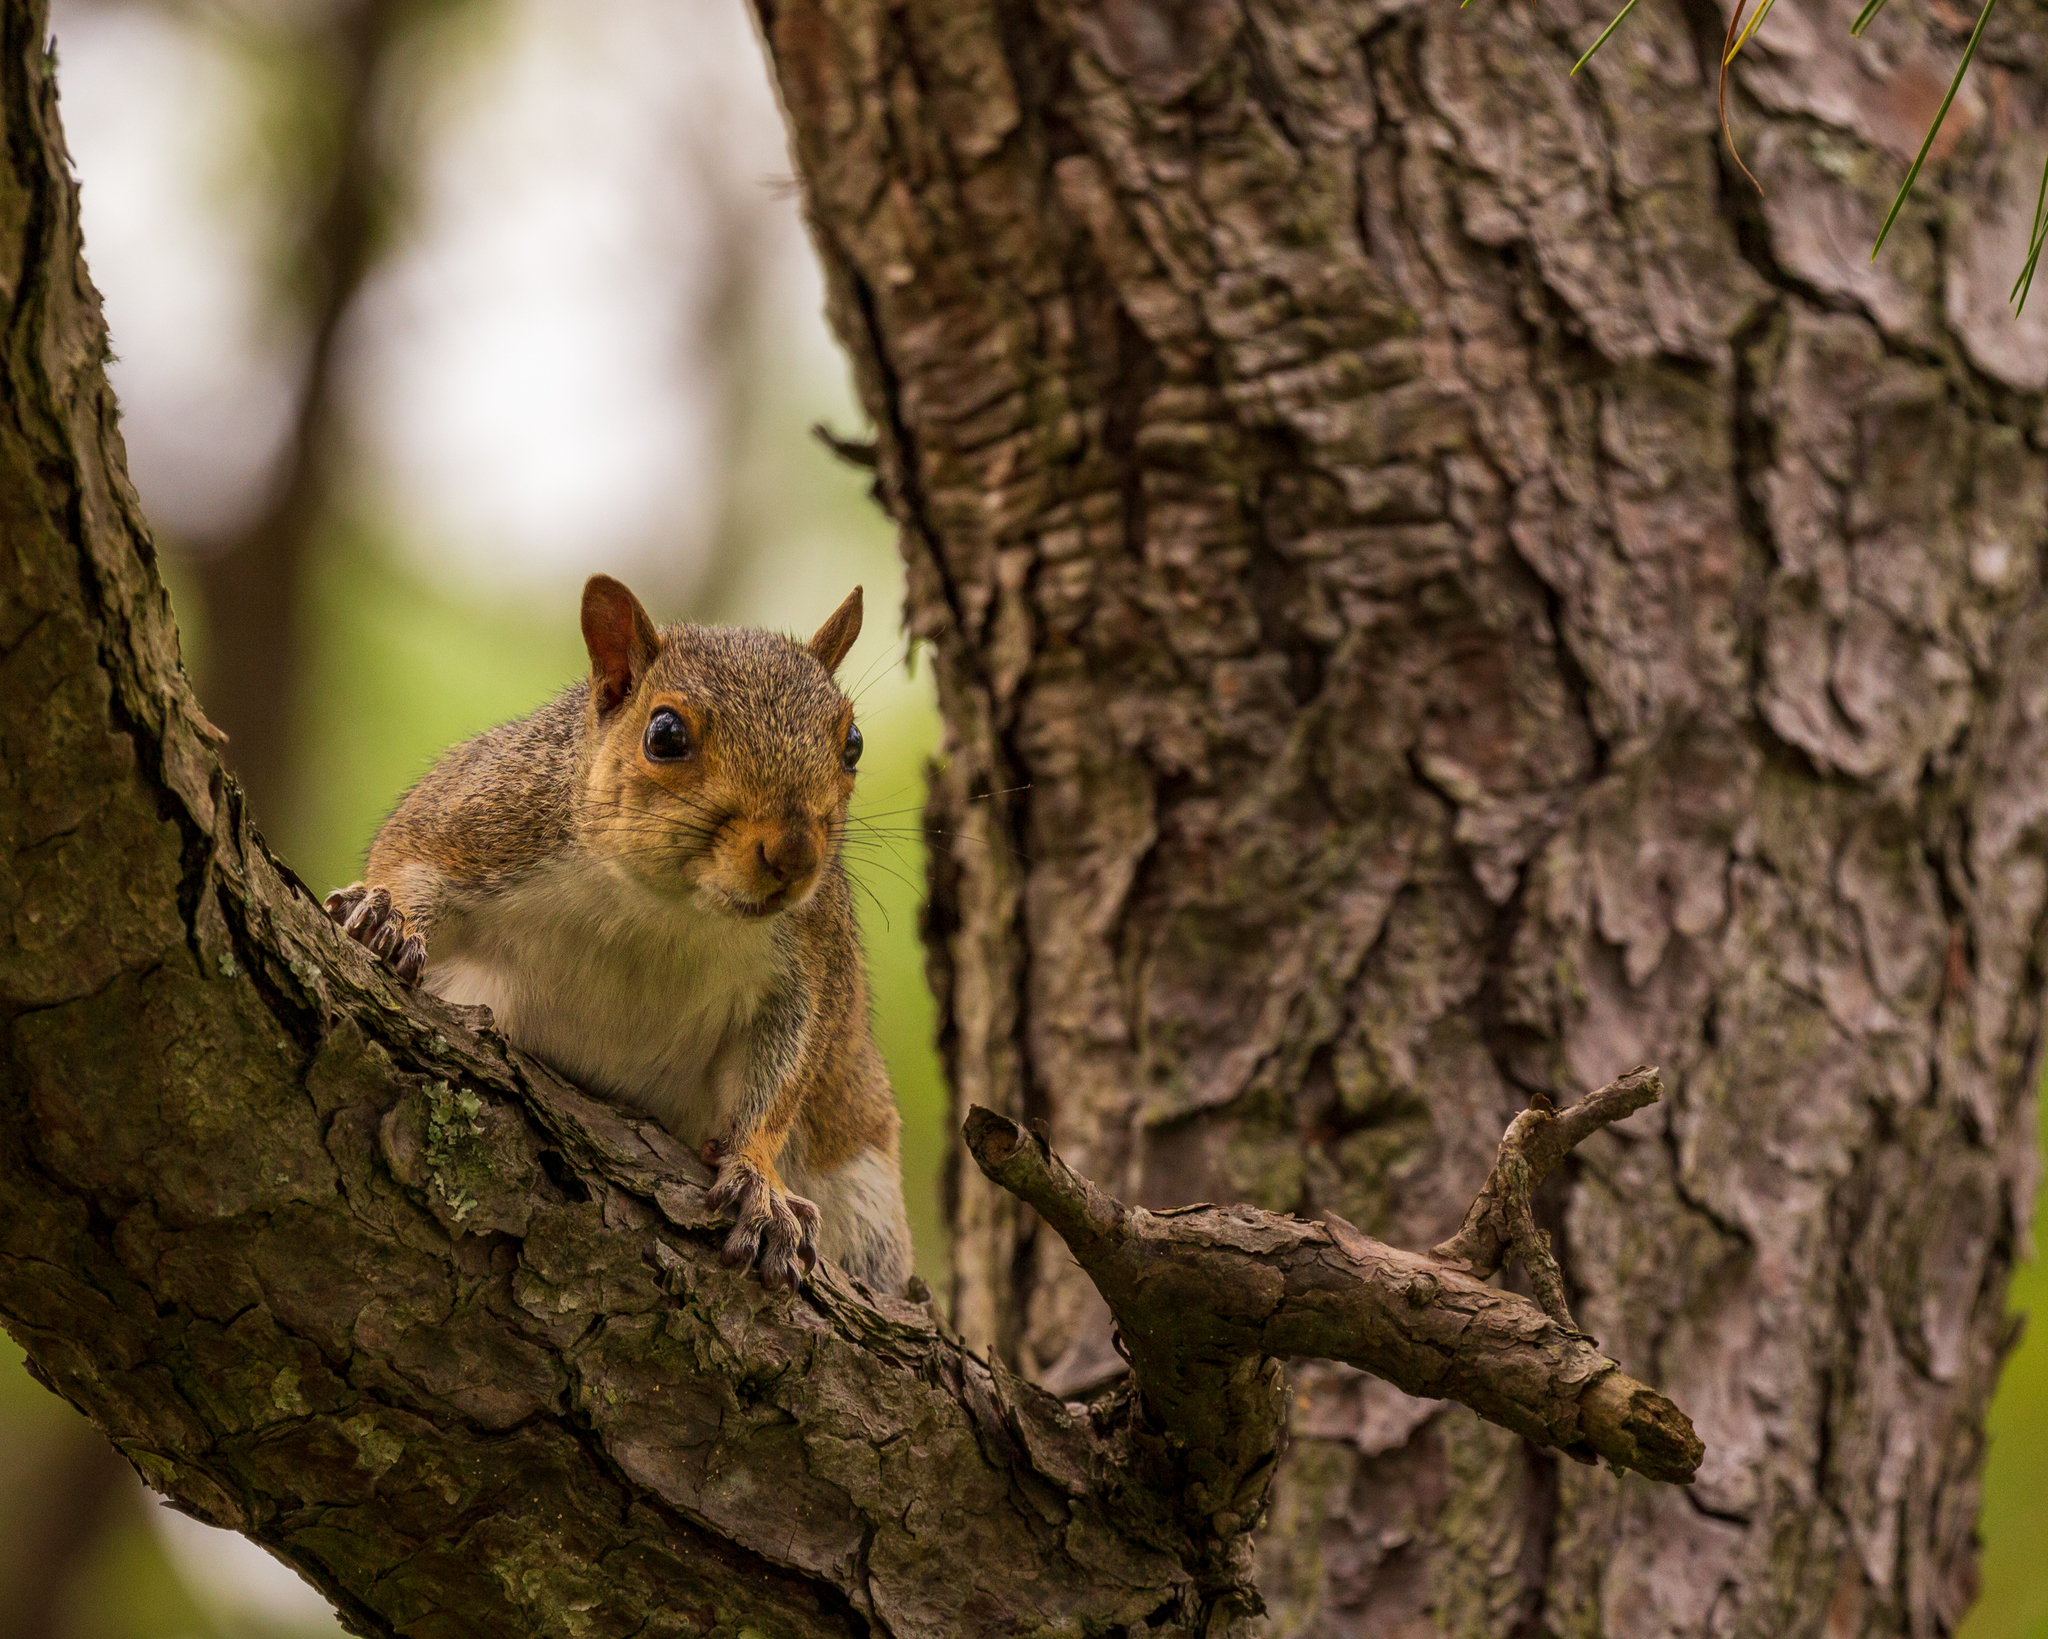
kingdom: Animalia
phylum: Chordata
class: Mammalia
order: Rodentia
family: Sciuridae
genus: Sciurus
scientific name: Sciurus carolinensis
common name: Eastern gray squirrel
